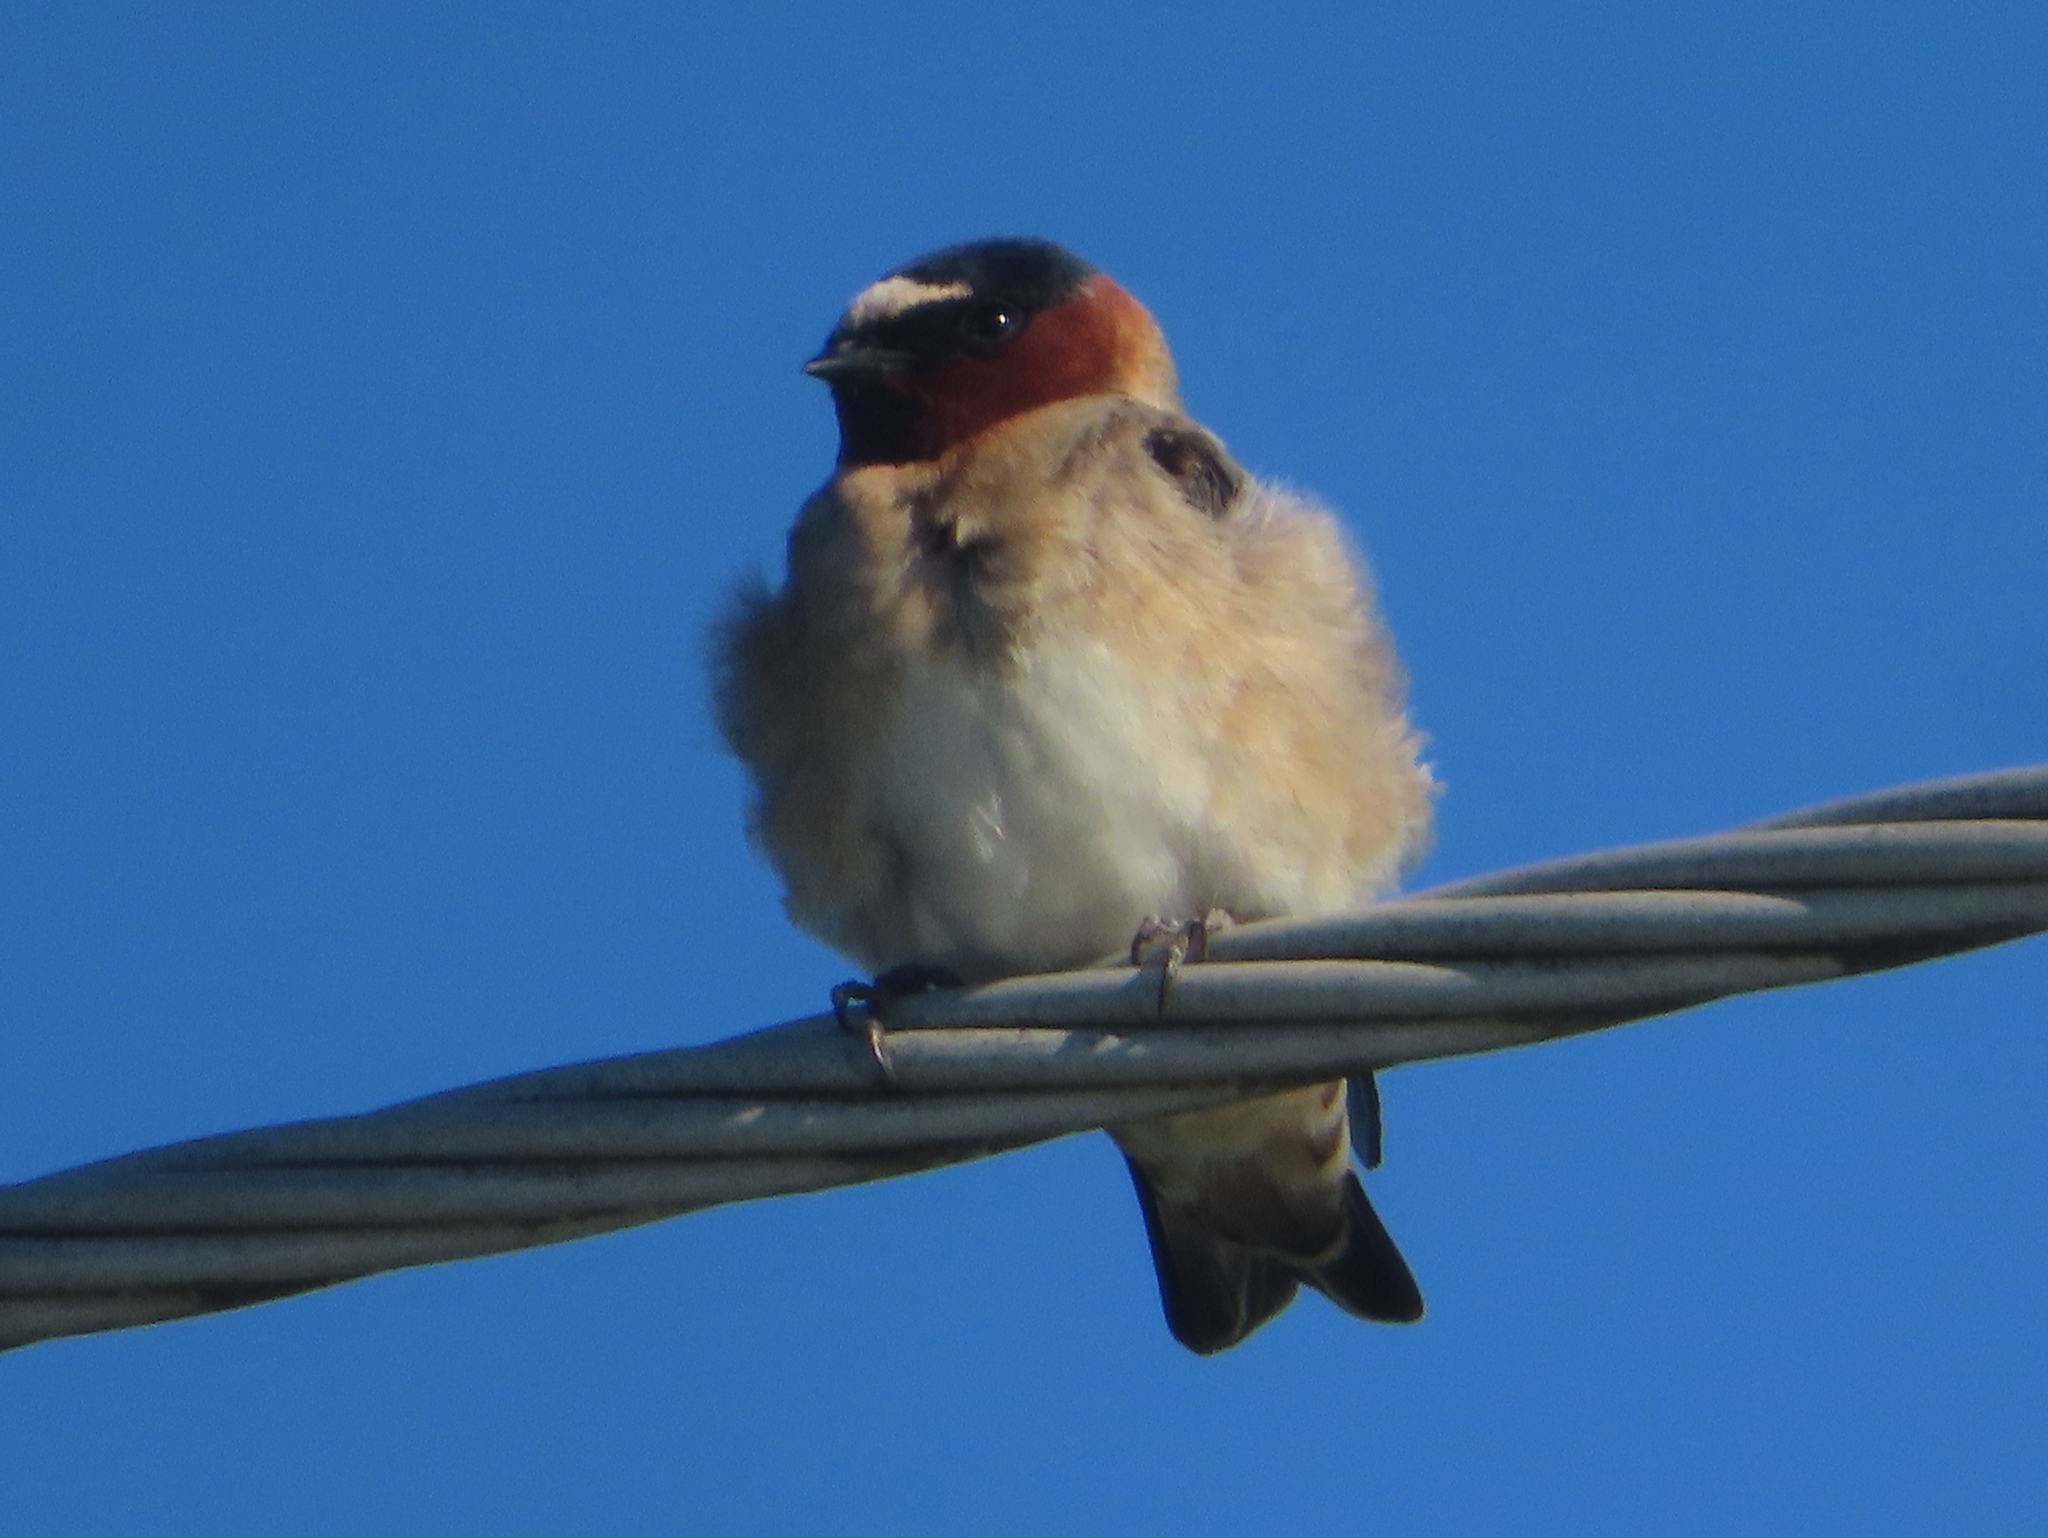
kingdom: Animalia
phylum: Chordata
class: Aves
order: Passeriformes
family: Hirundinidae
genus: Petrochelidon
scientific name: Petrochelidon pyrrhonota
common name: American cliff swallow
